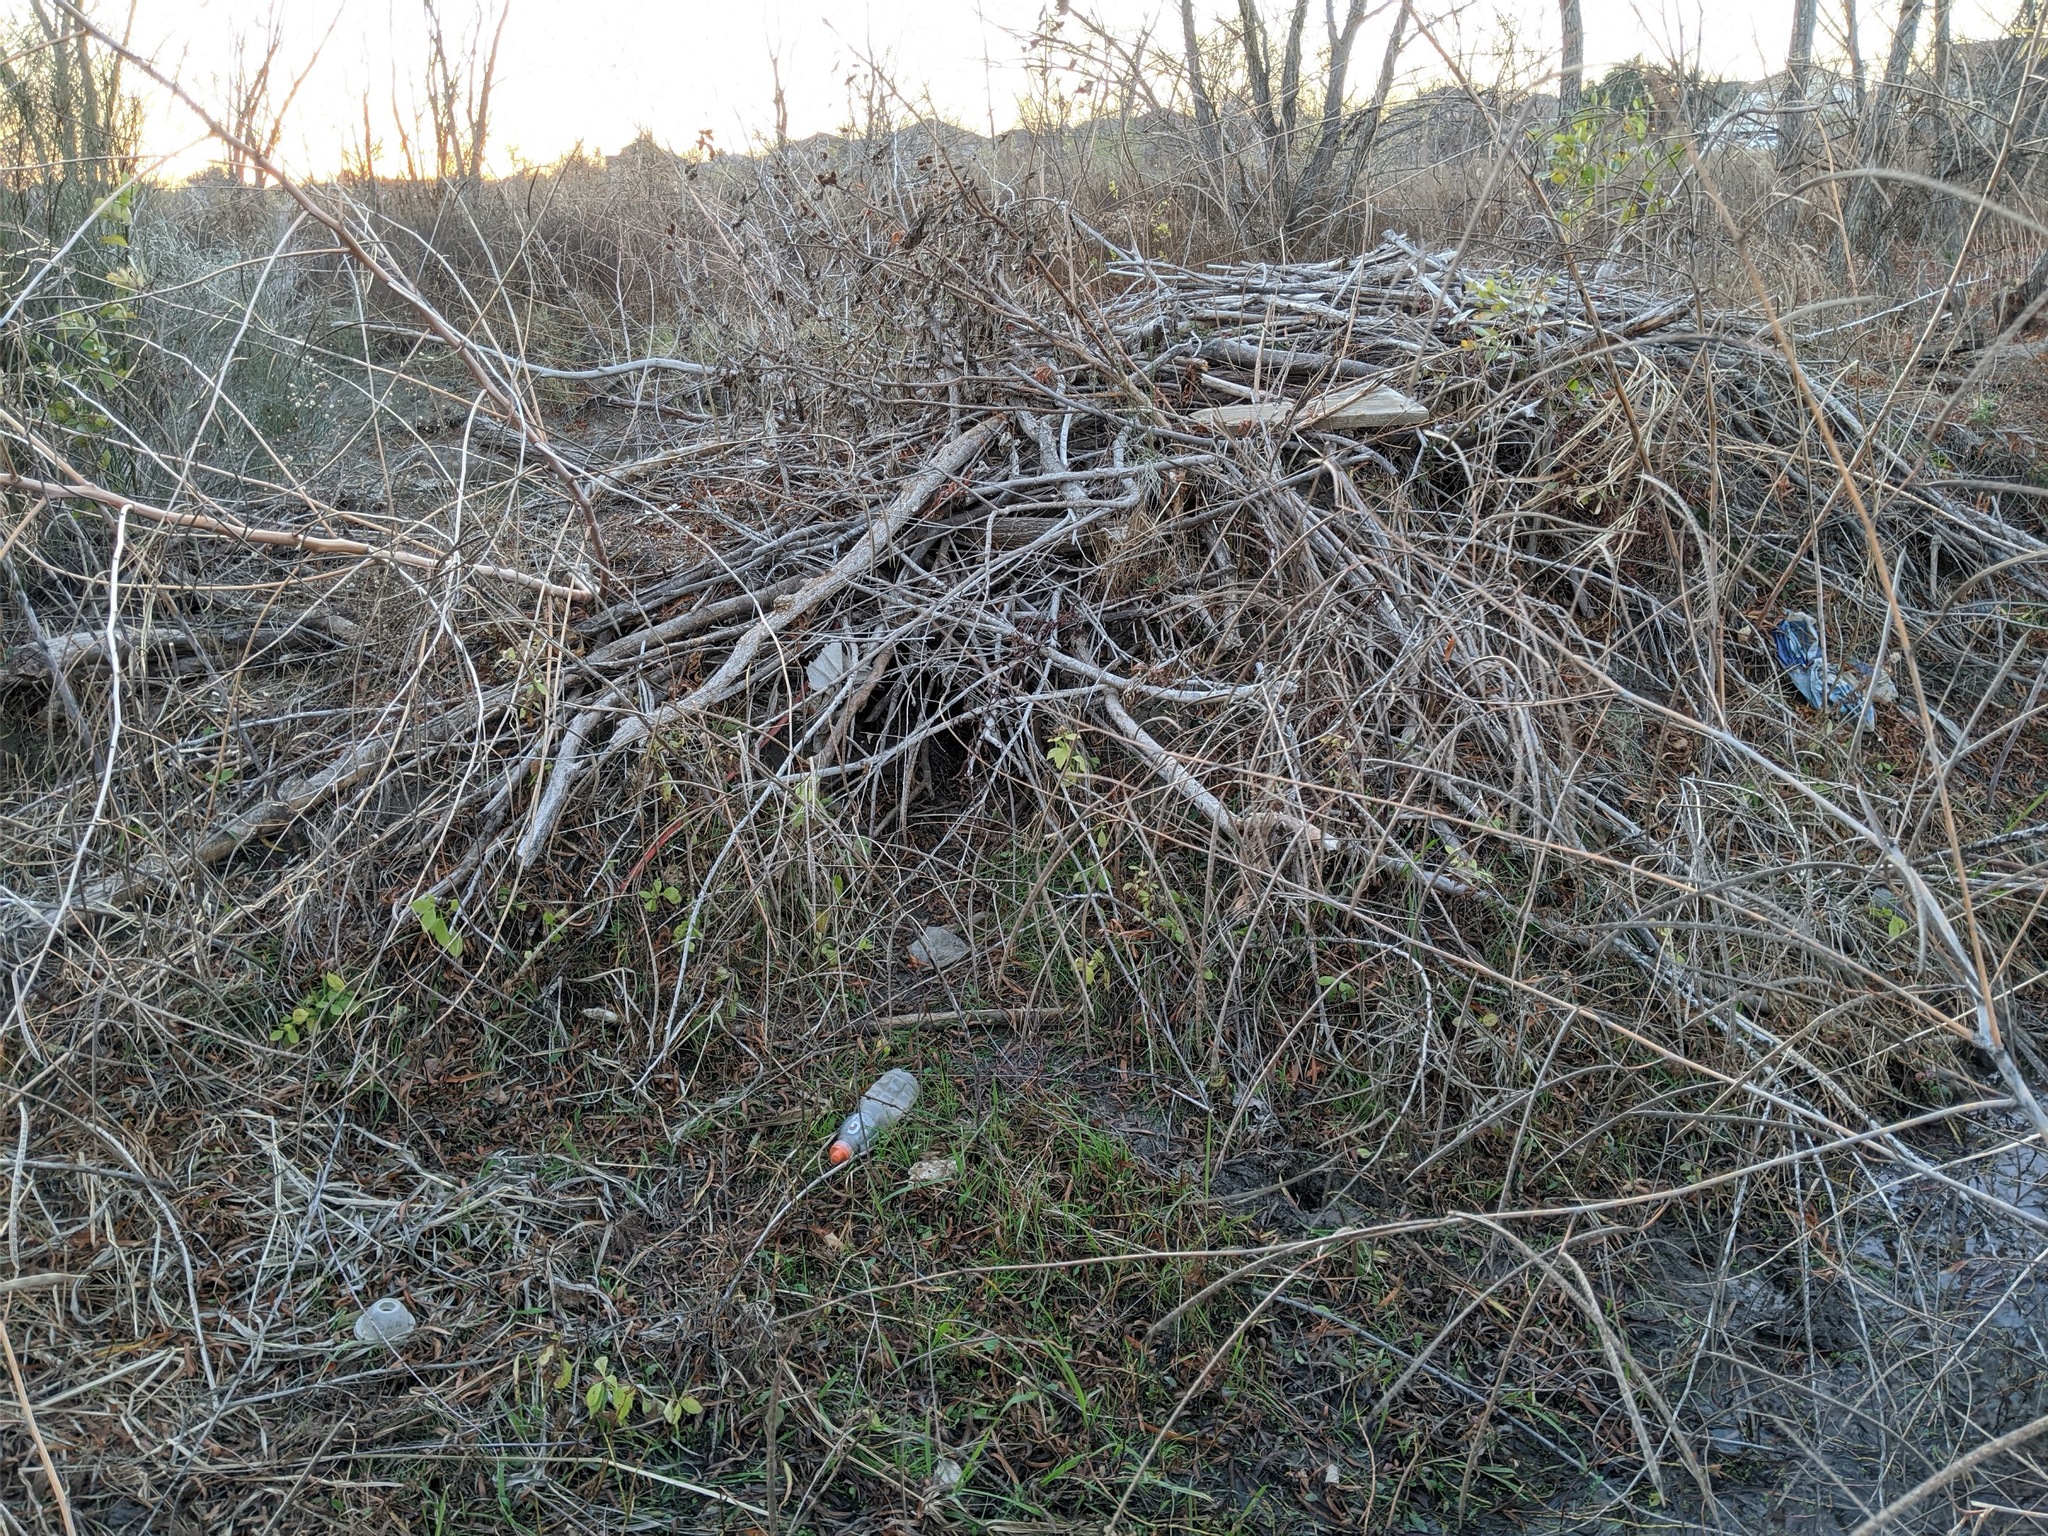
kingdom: Animalia
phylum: Chordata
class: Mammalia
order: Rodentia
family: Castoridae
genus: Castor
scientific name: Castor canadensis
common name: American beaver
